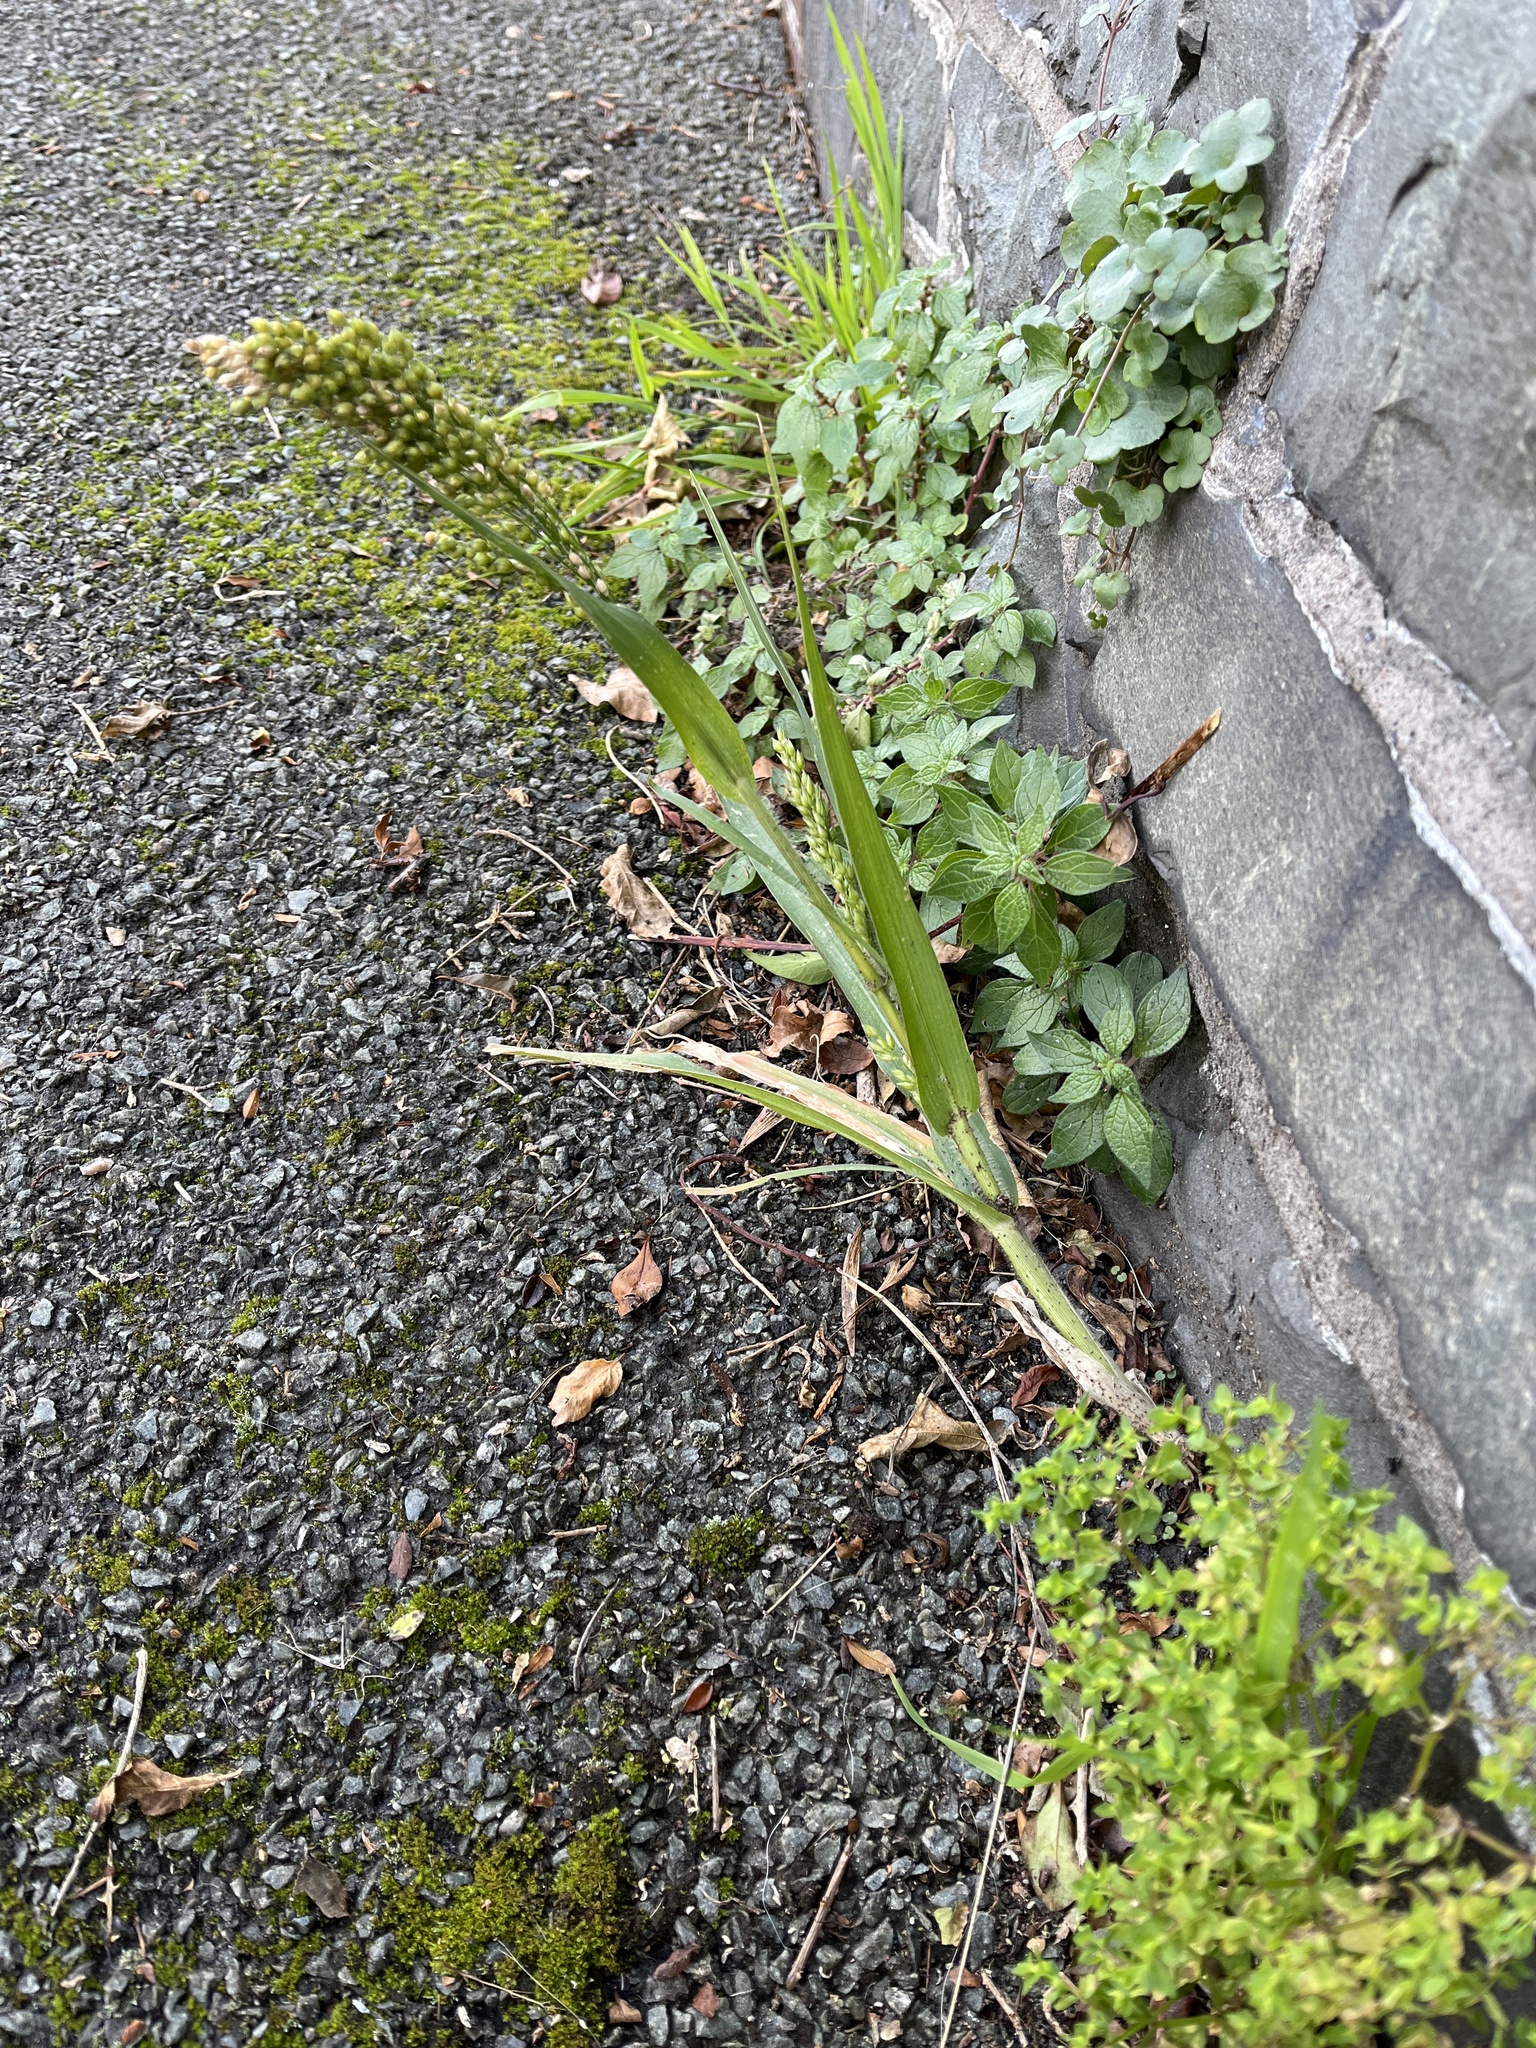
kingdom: Plantae
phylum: Tracheophyta
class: Liliopsida
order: Poales
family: Poaceae
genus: Panicum
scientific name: Panicum miliaceum
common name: Common millet
